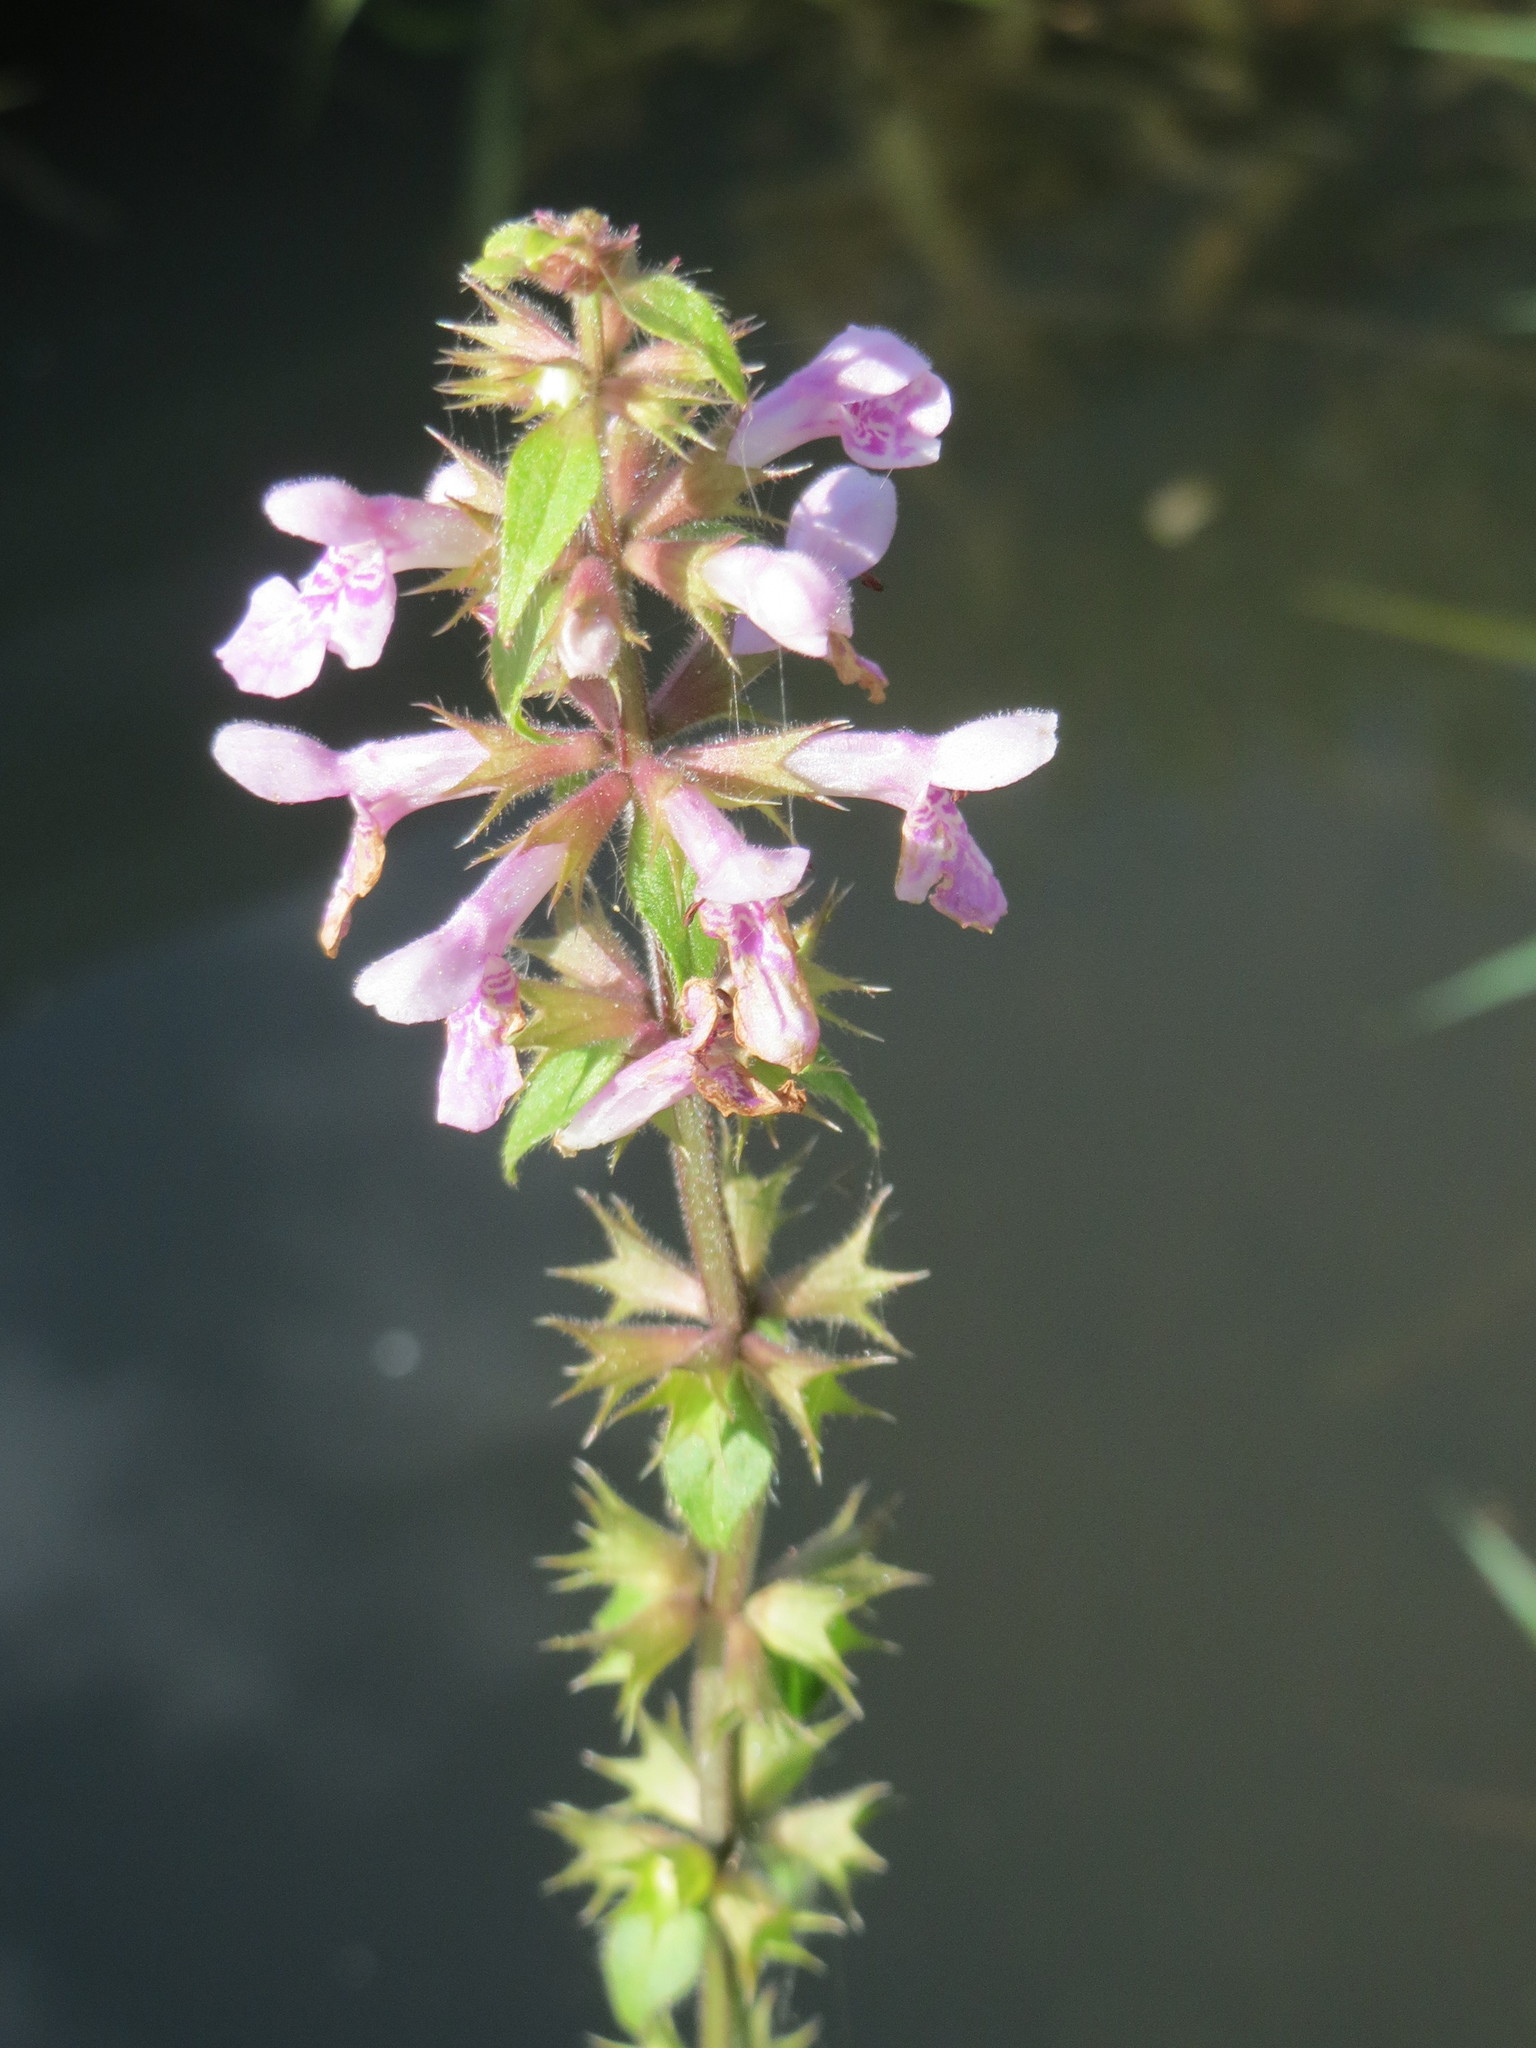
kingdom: Plantae
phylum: Tracheophyta
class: Magnoliopsida
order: Lamiales
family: Lamiaceae
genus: Stachys
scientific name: Stachys palustris
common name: Marsh woundwort
